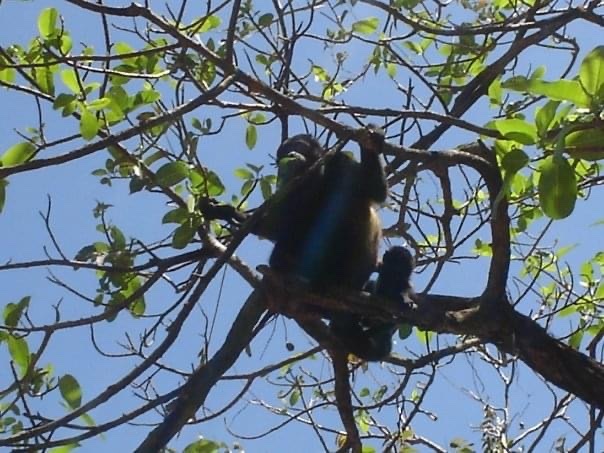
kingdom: Animalia
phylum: Chordata
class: Mammalia
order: Primates
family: Atelidae
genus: Alouatta
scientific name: Alouatta palliata
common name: Mantled howler
